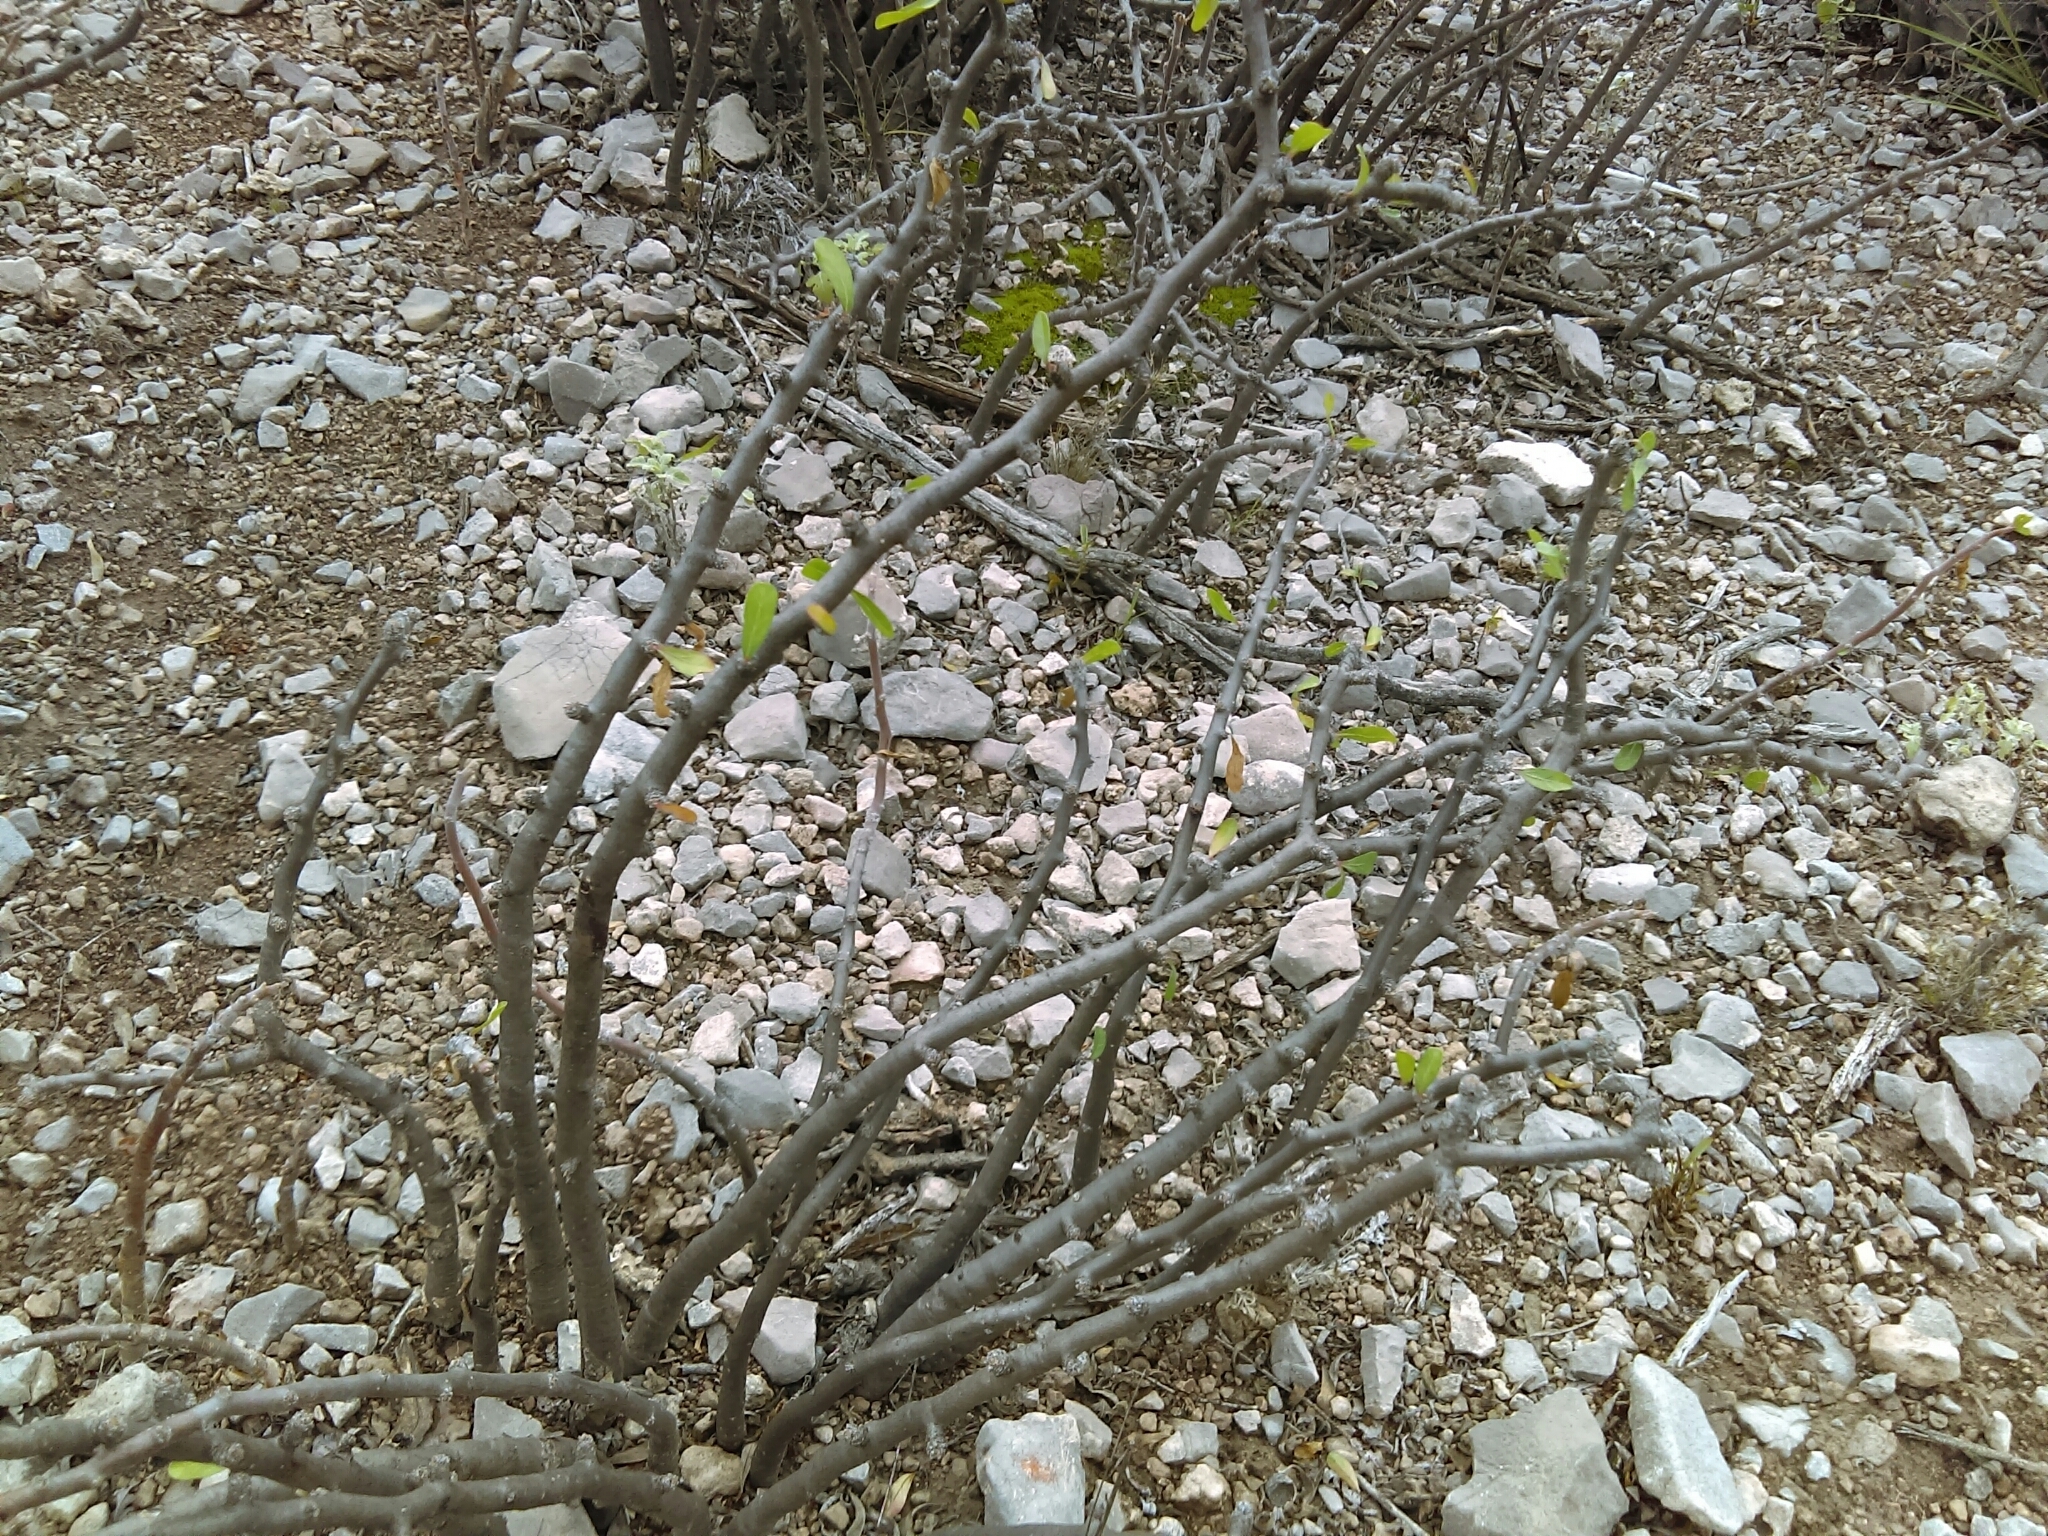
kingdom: Plantae
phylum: Tracheophyta
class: Magnoliopsida
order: Malpighiales
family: Euphorbiaceae
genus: Jatropha
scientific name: Jatropha dioica
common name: Leatherstem
